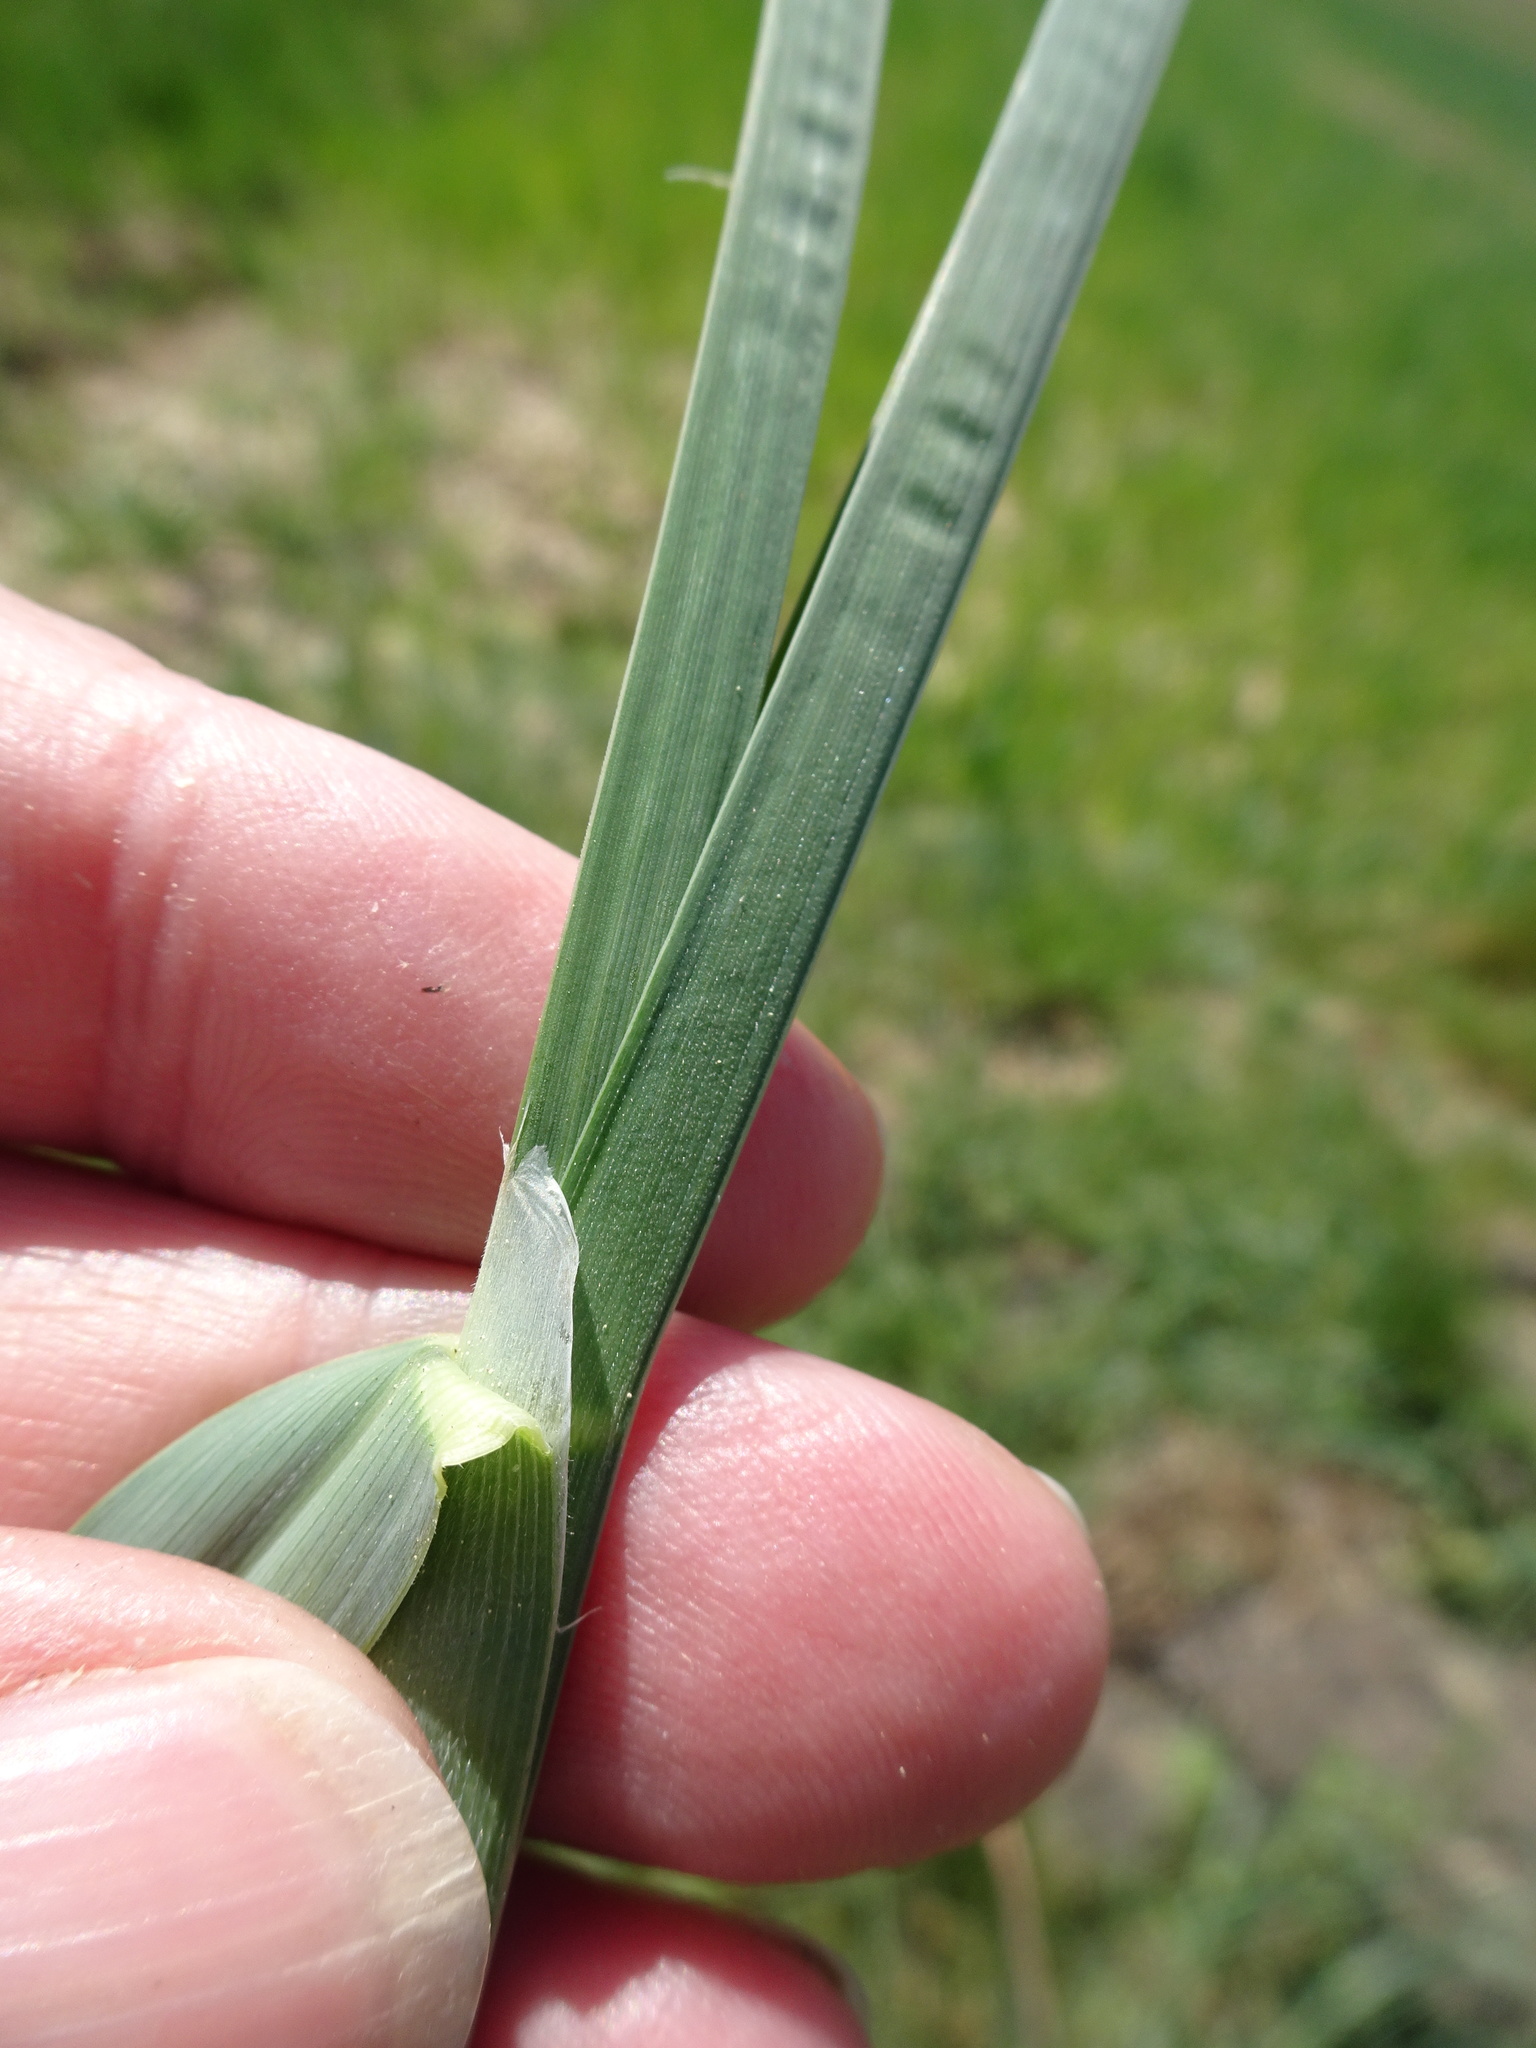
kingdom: Plantae
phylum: Tracheophyta
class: Liliopsida
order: Poales
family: Poaceae
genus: Dactylis
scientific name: Dactylis glomerata
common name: Orchardgrass
